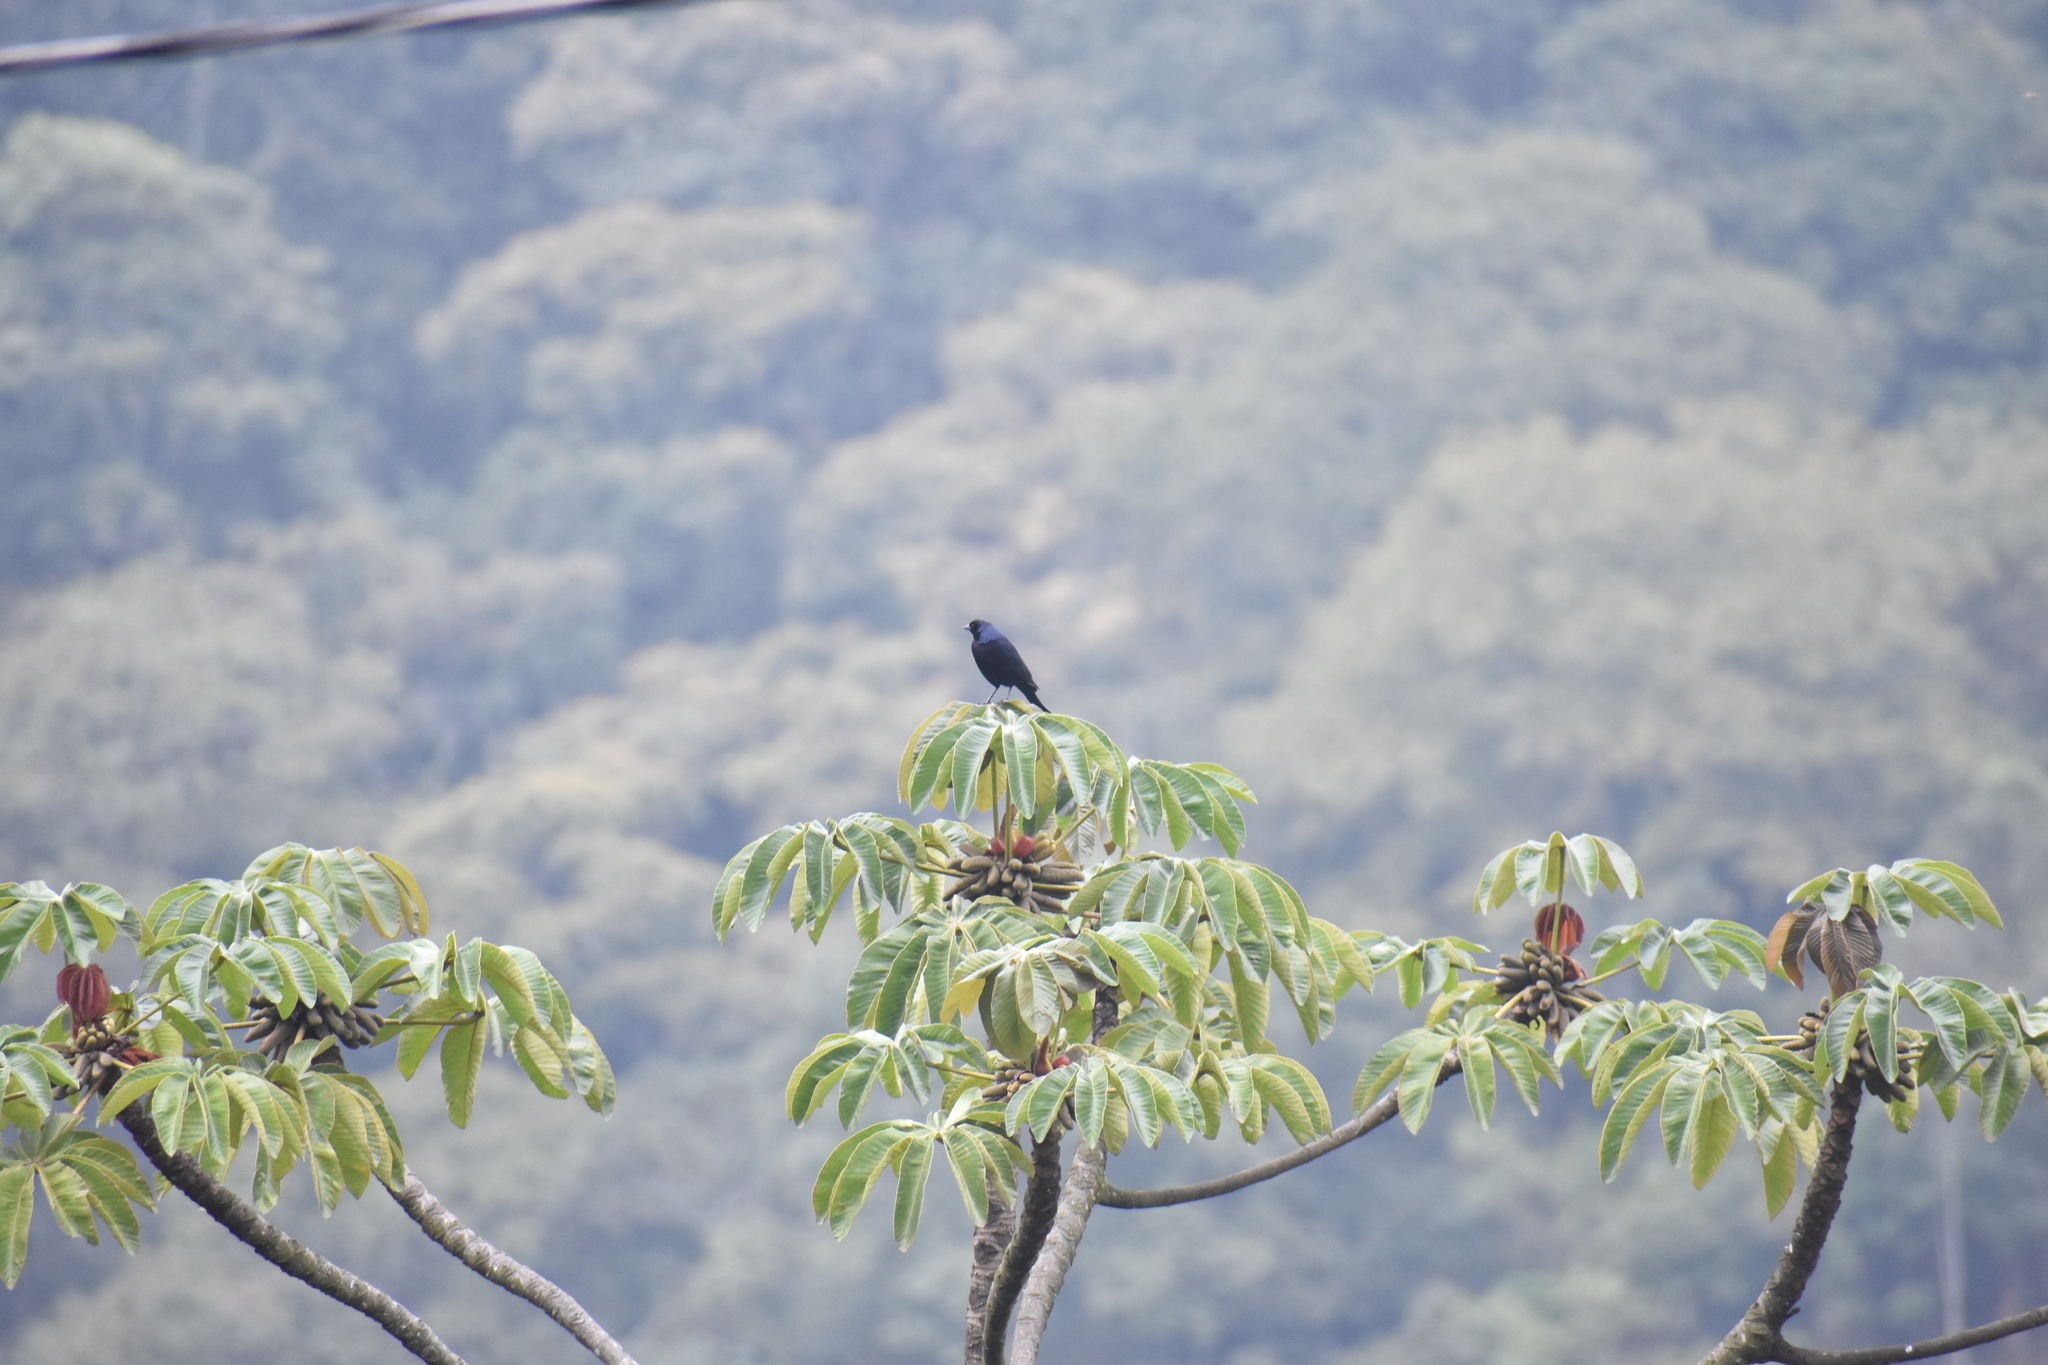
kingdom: Animalia
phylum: Chordata
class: Aves
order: Passeriformes
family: Icteridae
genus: Molothrus
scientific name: Molothrus bonariensis
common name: Shiny cowbird
